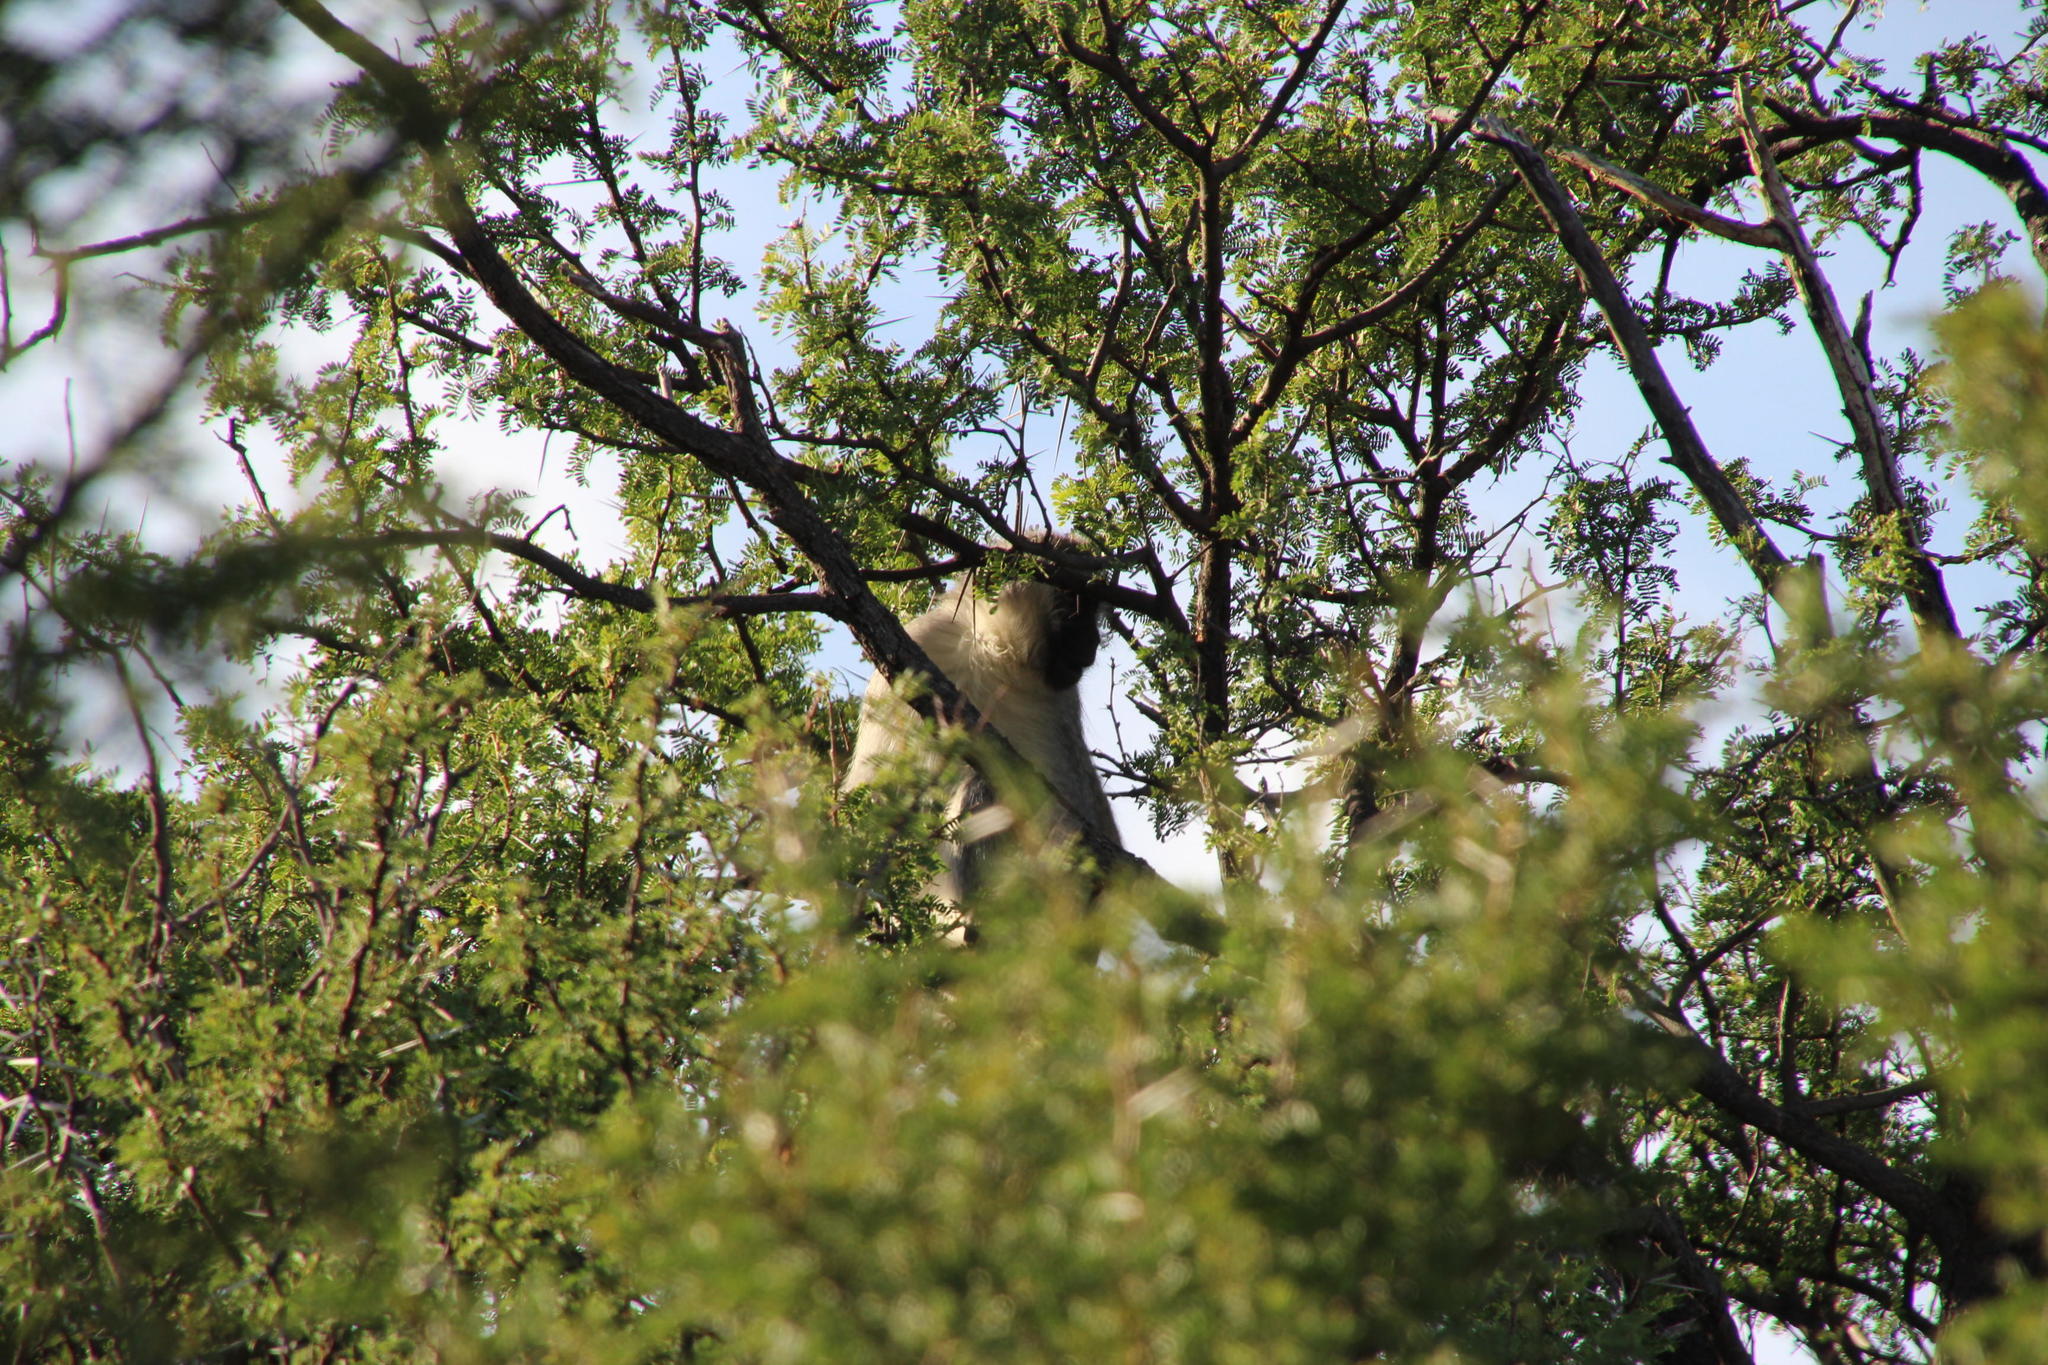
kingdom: Animalia
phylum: Chordata
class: Mammalia
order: Primates
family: Cercopithecidae
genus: Chlorocebus
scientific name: Chlorocebus pygerythrus
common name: Vervet monkey
